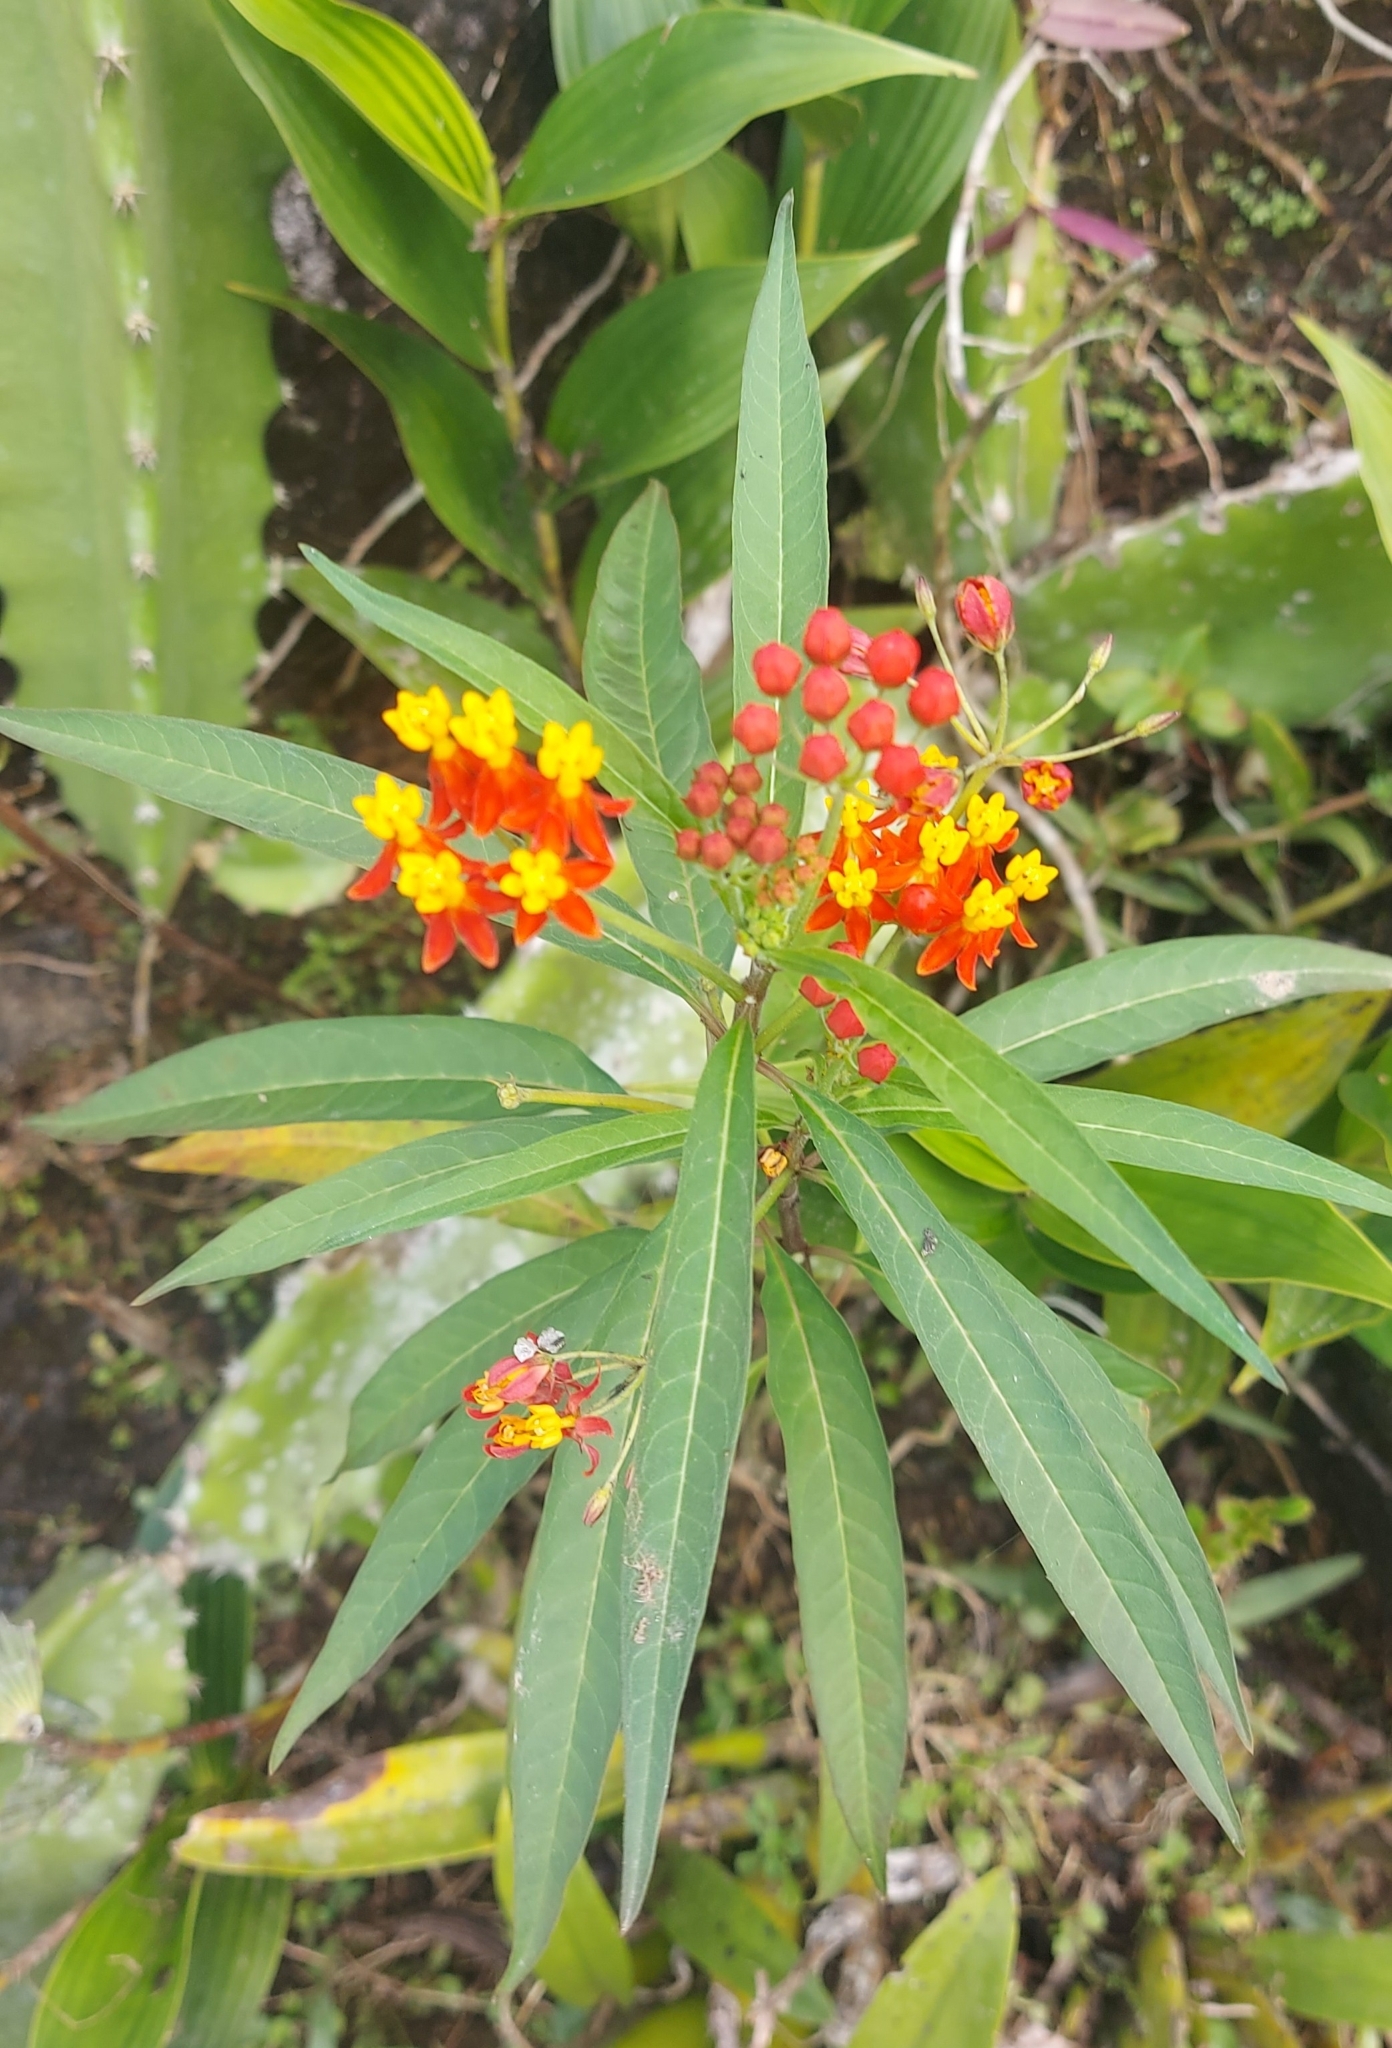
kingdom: Plantae
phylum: Tracheophyta
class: Magnoliopsida
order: Gentianales
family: Apocynaceae
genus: Asclepias
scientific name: Asclepias curassavica
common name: Bloodflower
